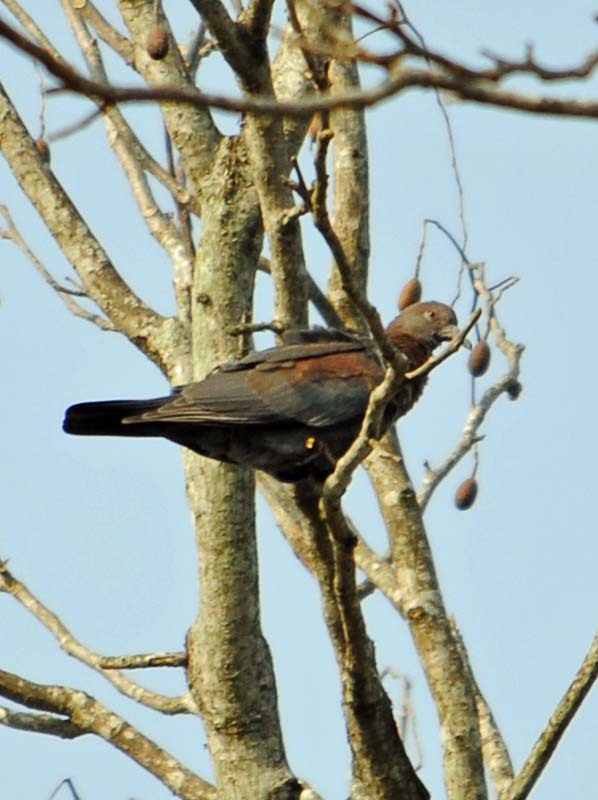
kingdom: Animalia
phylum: Chordata
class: Aves
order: Columbiformes
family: Columbidae
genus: Patagioenas
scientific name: Patagioenas flavirostris
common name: Red-billed pigeon
